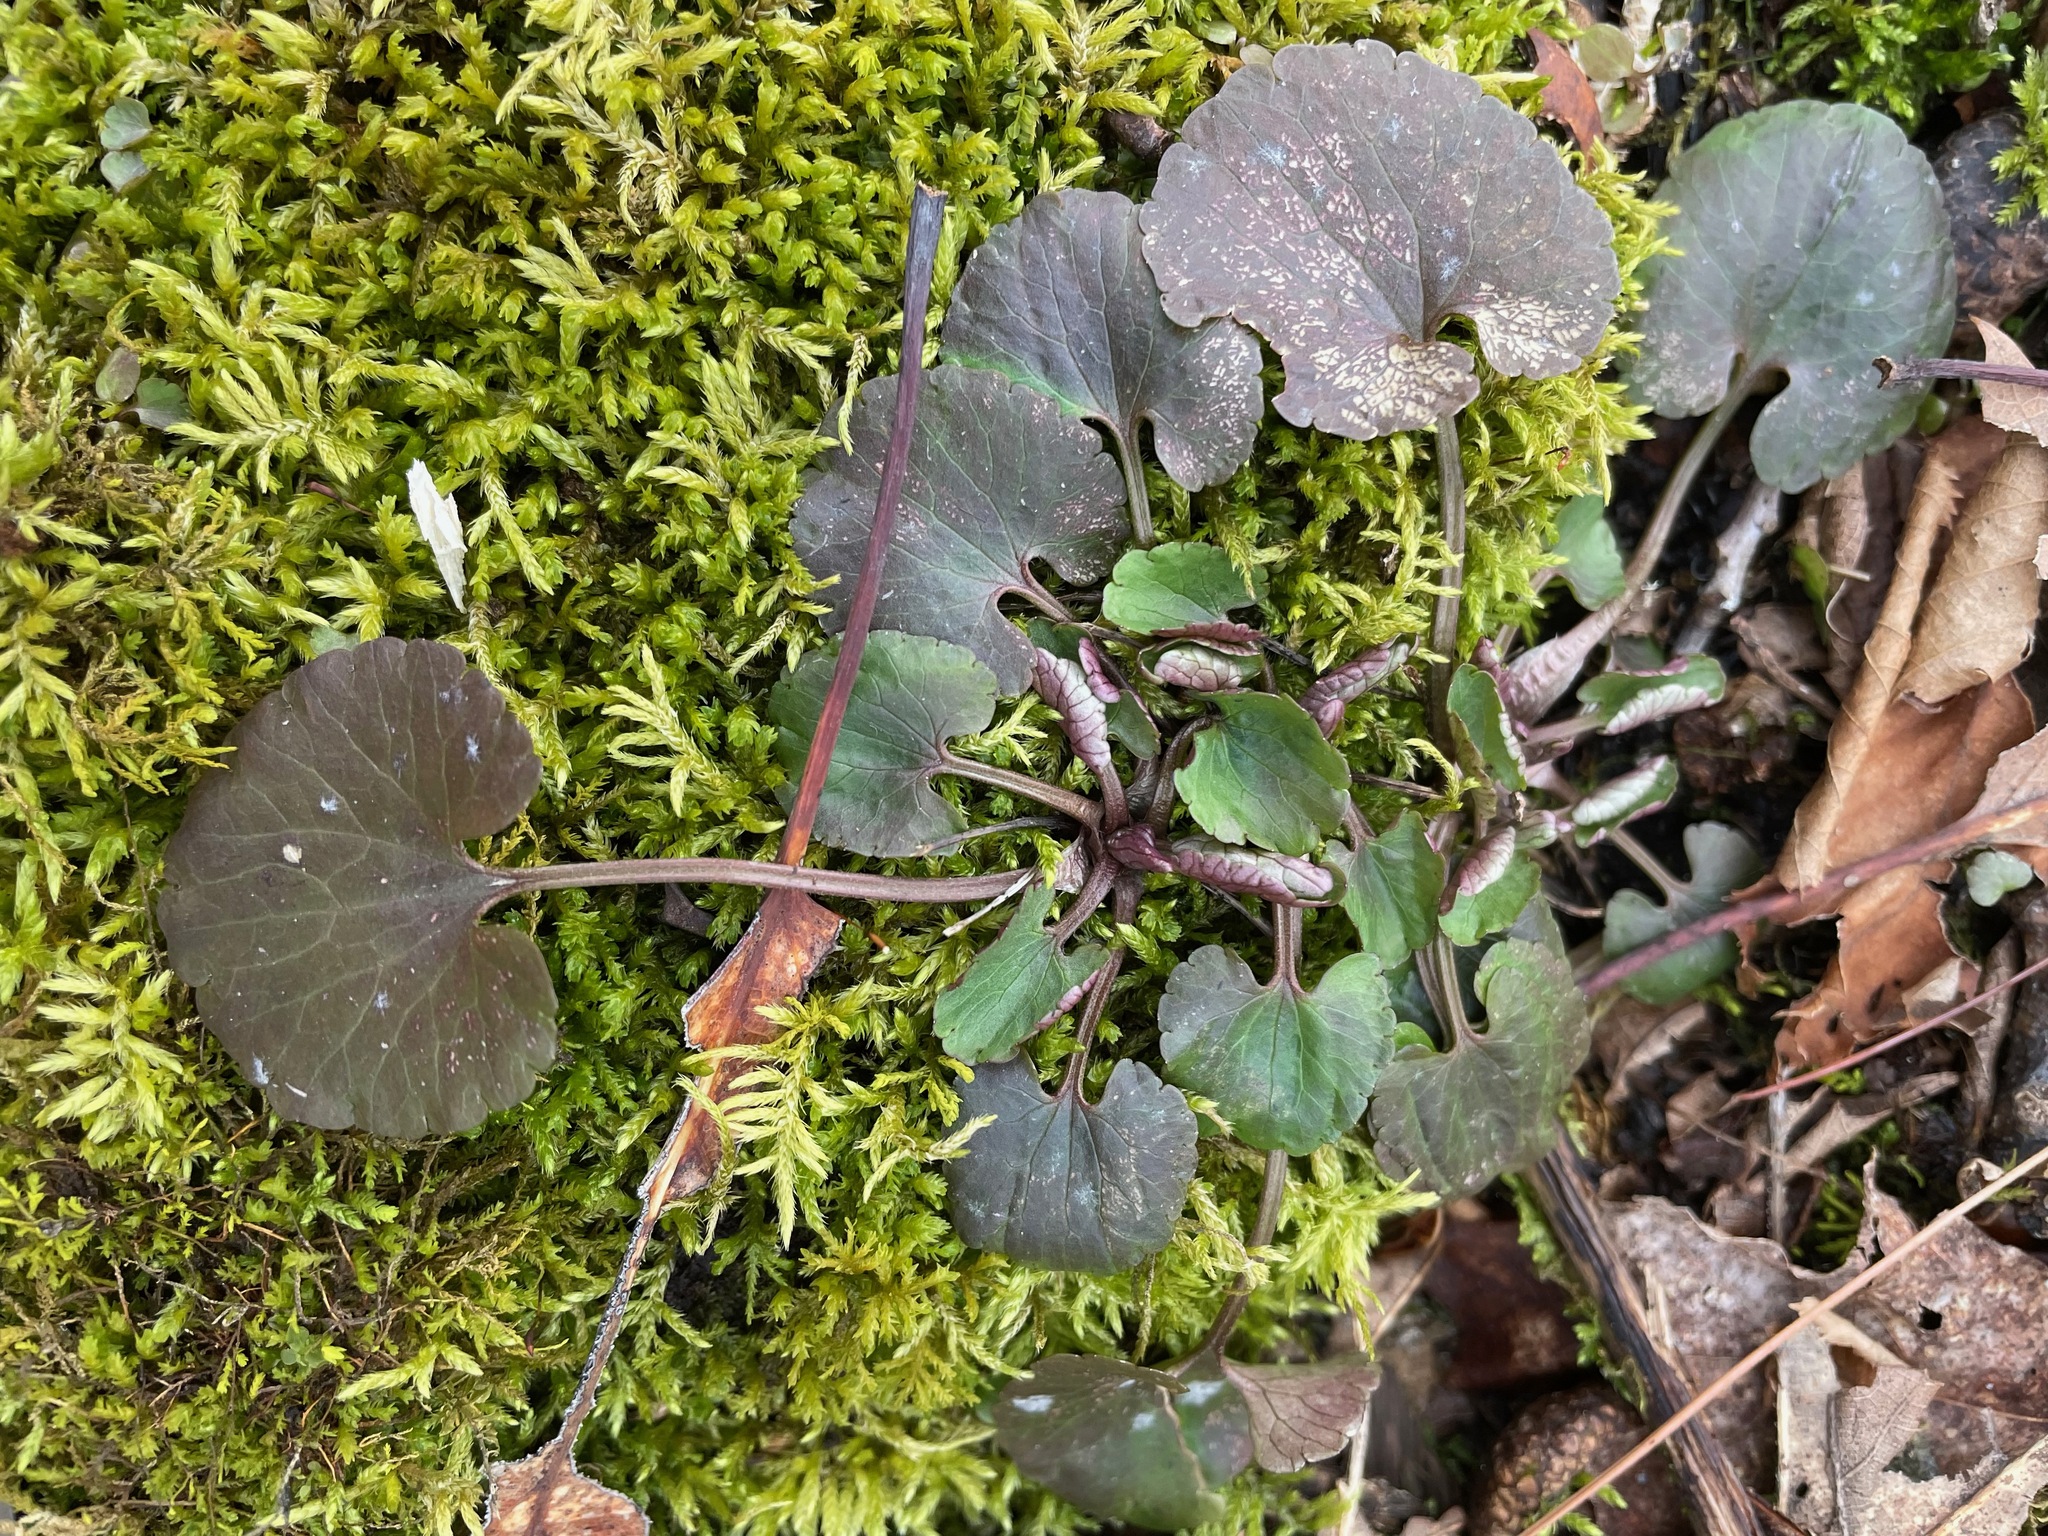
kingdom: Plantae
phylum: Tracheophyta
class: Magnoliopsida
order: Ranunculales
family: Ranunculaceae
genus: Ranunculus
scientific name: Ranunculus abortivus
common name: Early wood buttercup
